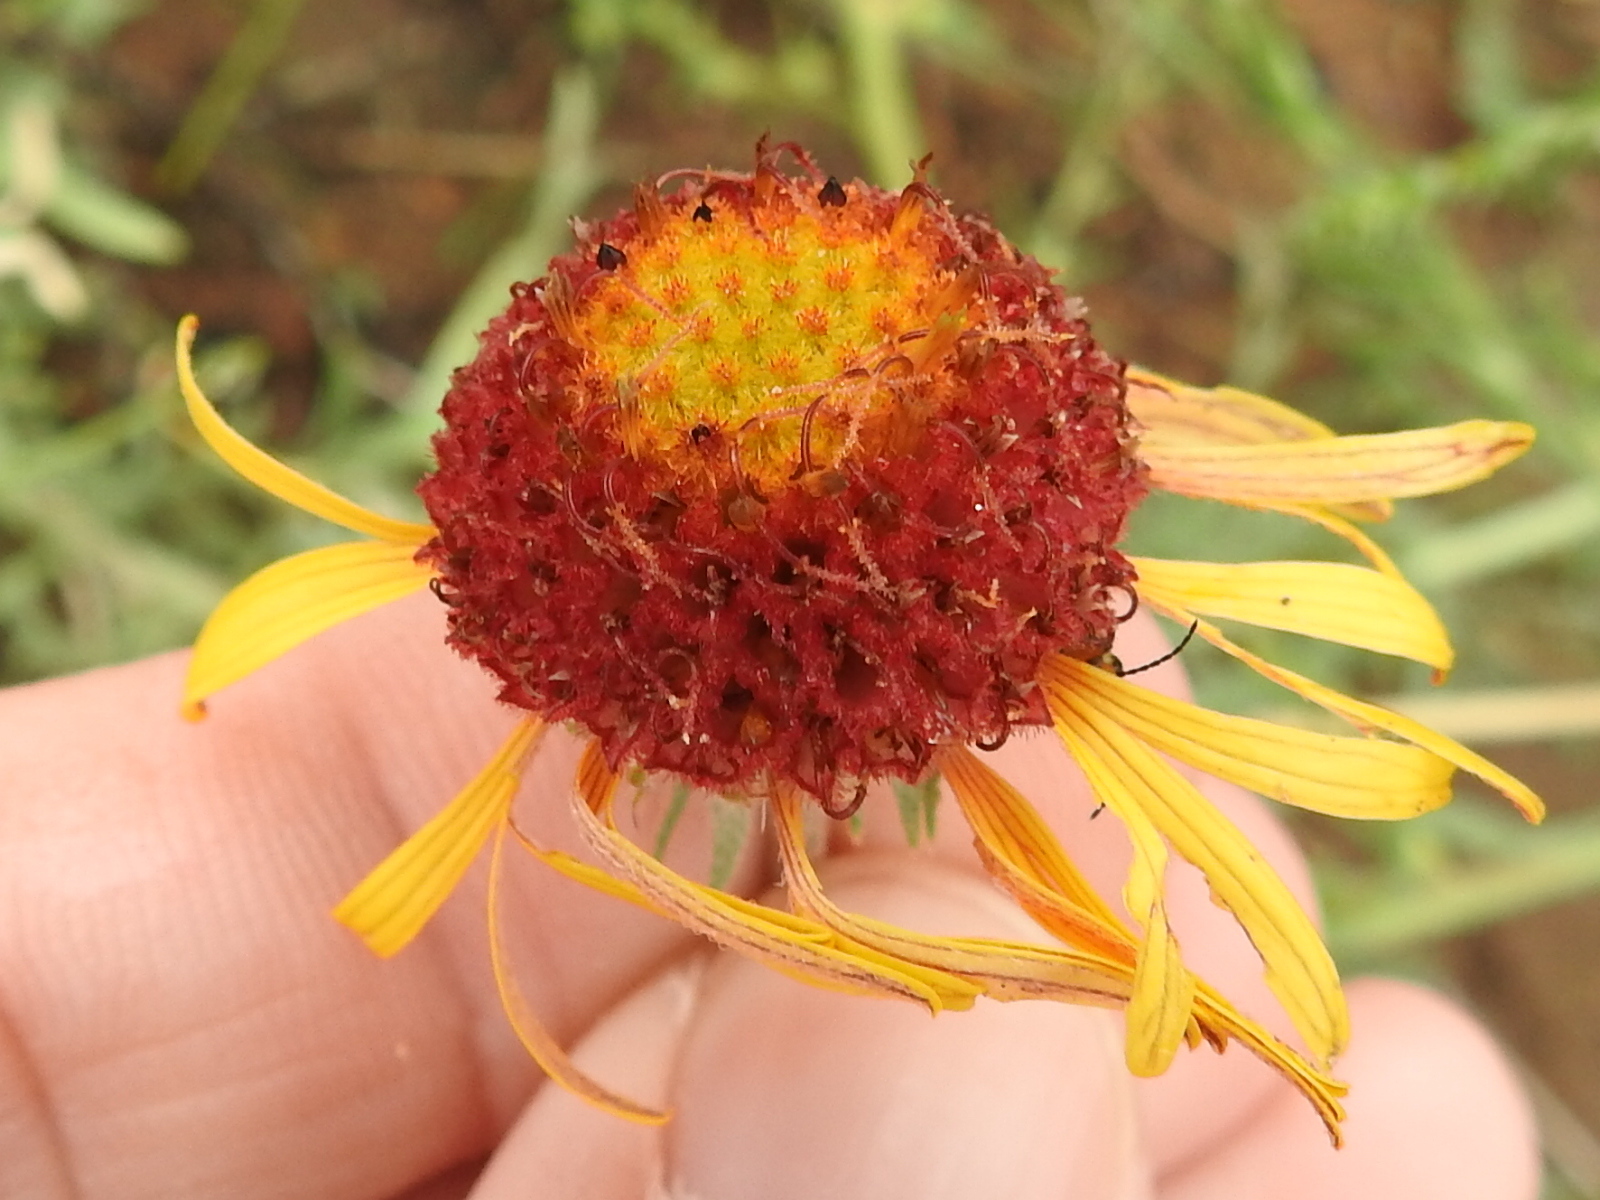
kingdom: Plantae
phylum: Tracheophyta
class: Magnoliopsida
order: Asterales
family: Asteraceae
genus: Gaillardia
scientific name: Gaillardia pinnatifida
